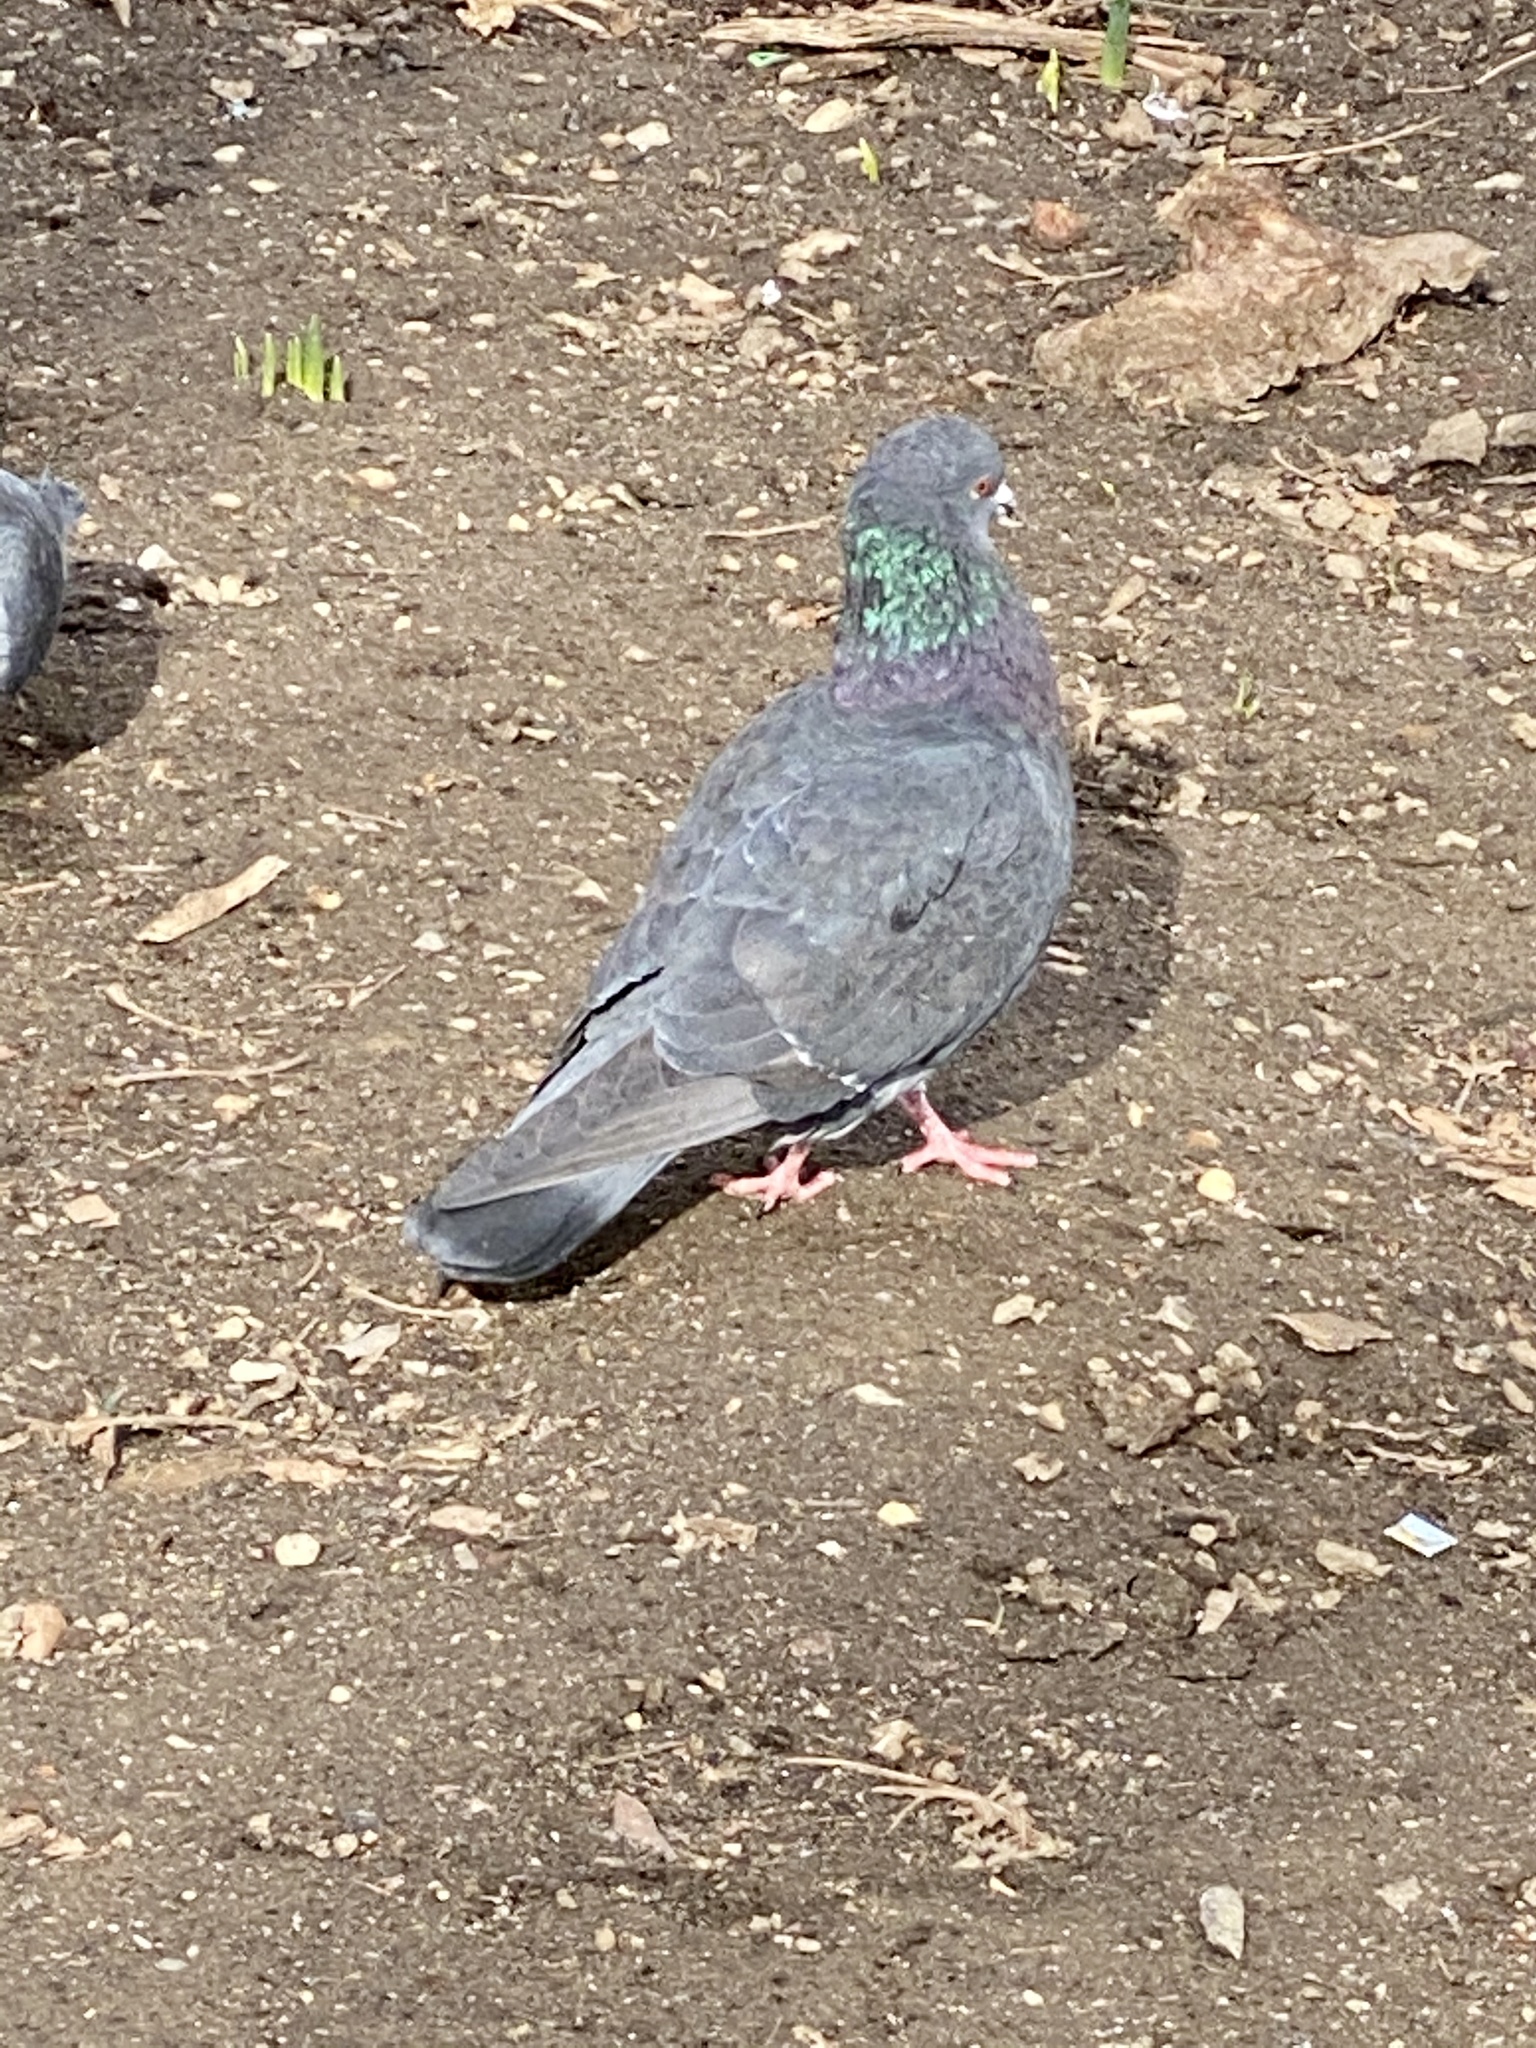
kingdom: Animalia
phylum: Chordata
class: Aves
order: Columbiformes
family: Columbidae
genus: Columba
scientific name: Columba livia
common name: Rock pigeon
